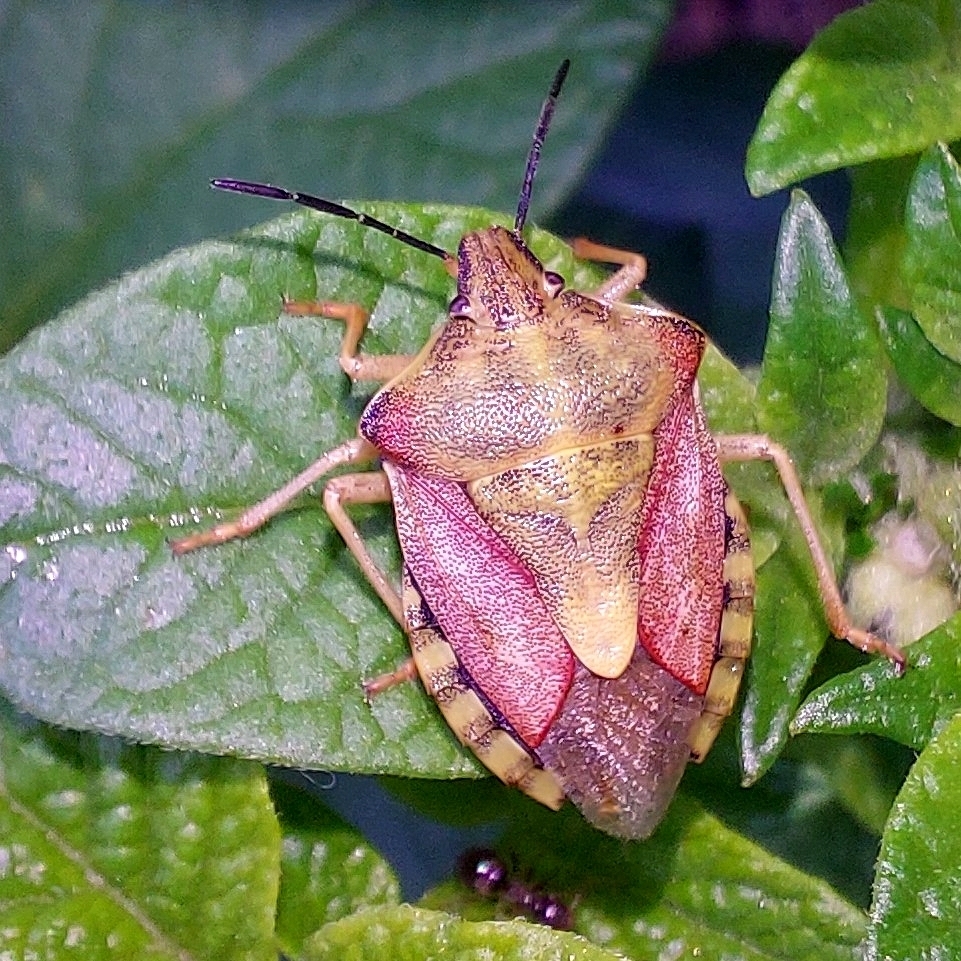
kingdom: Animalia
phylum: Arthropoda
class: Insecta
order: Hemiptera
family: Pentatomidae
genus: Carpocoris
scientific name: Carpocoris purpureipennis
